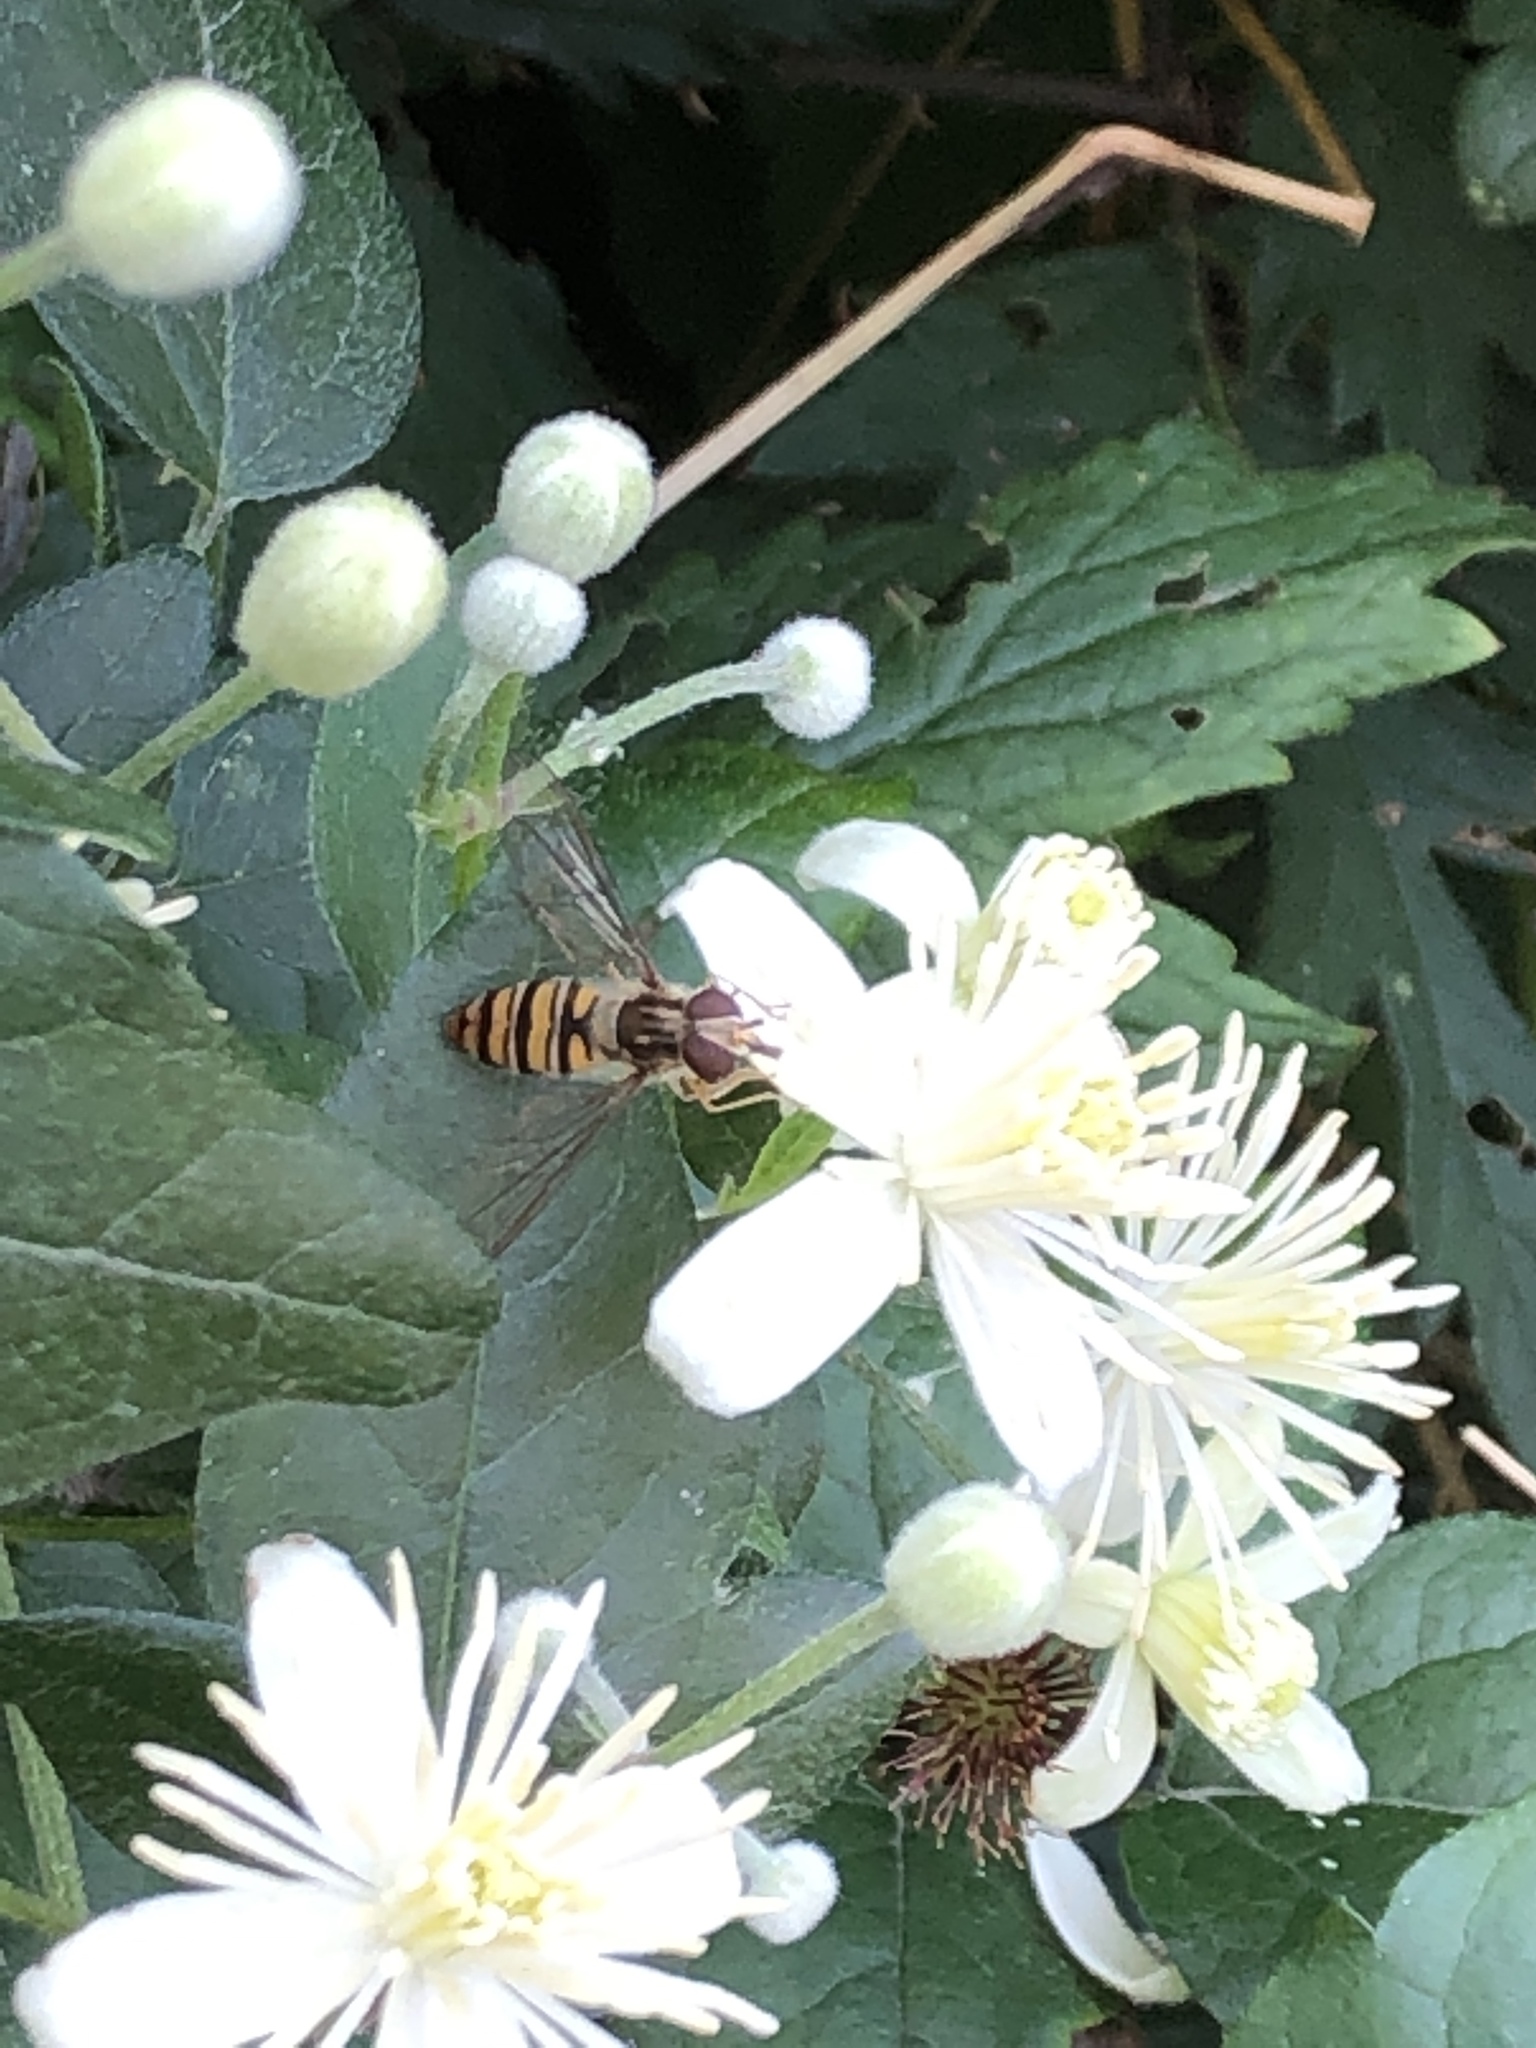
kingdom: Animalia
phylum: Arthropoda
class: Insecta
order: Diptera
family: Syrphidae
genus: Episyrphus
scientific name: Episyrphus balteatus
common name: Marmalade hoverfly
